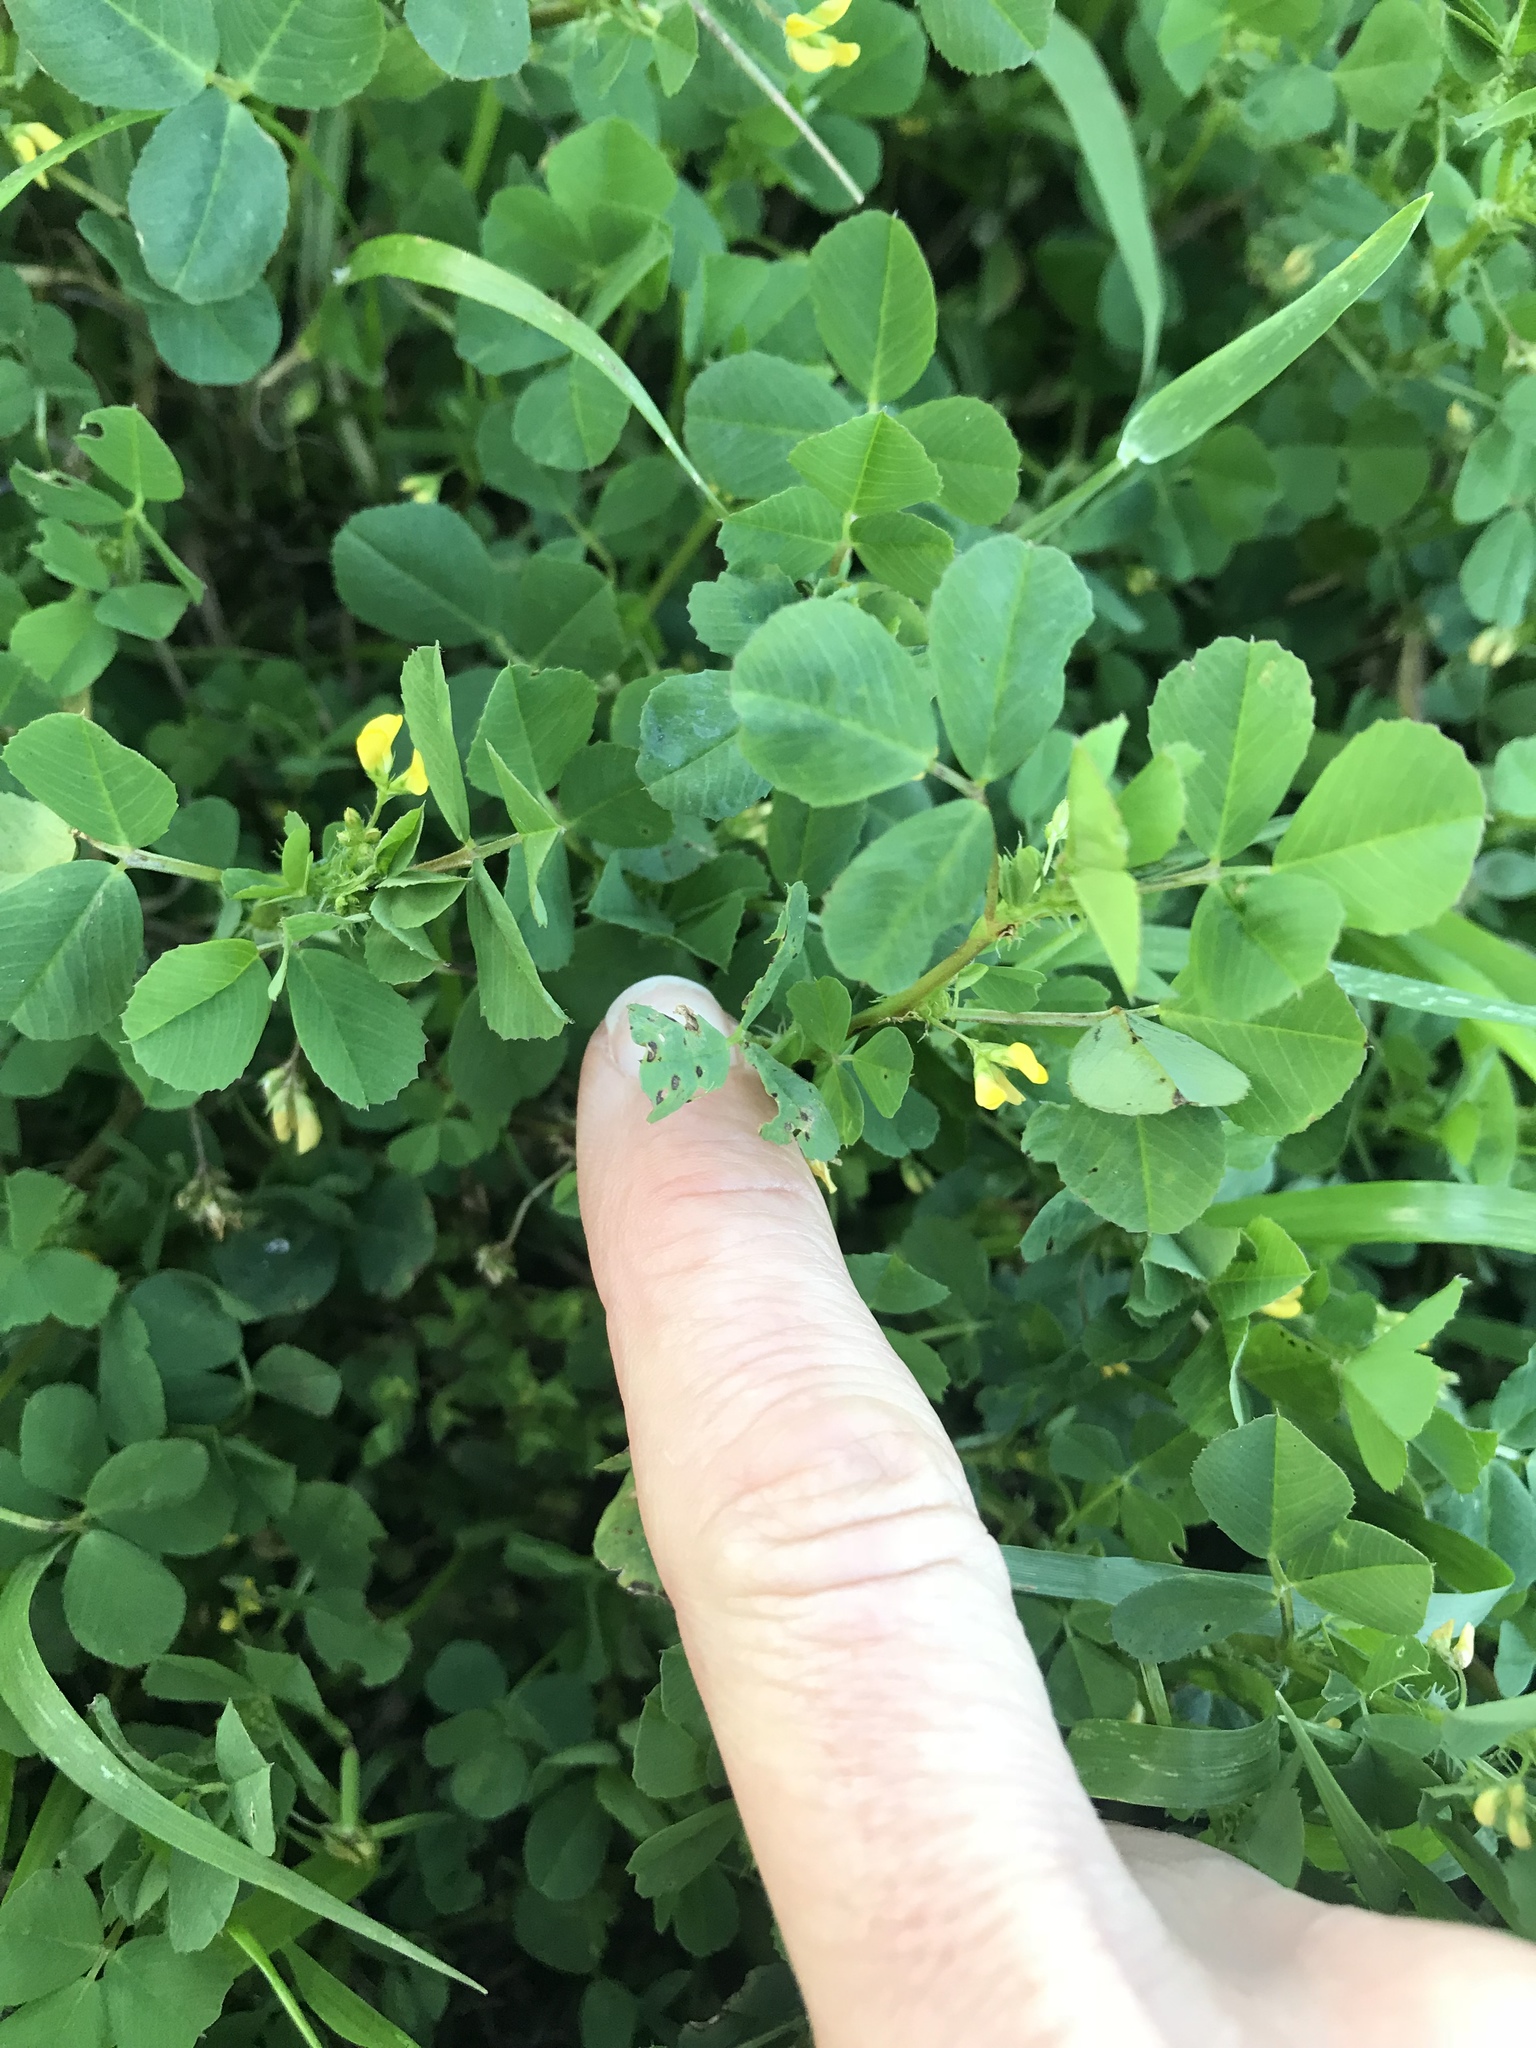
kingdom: Plantae
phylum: Tracheophyta
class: Magnoliopsida
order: Fabales
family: Fabaceae
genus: Medicago
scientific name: Medicago polymorpha
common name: Burclover
